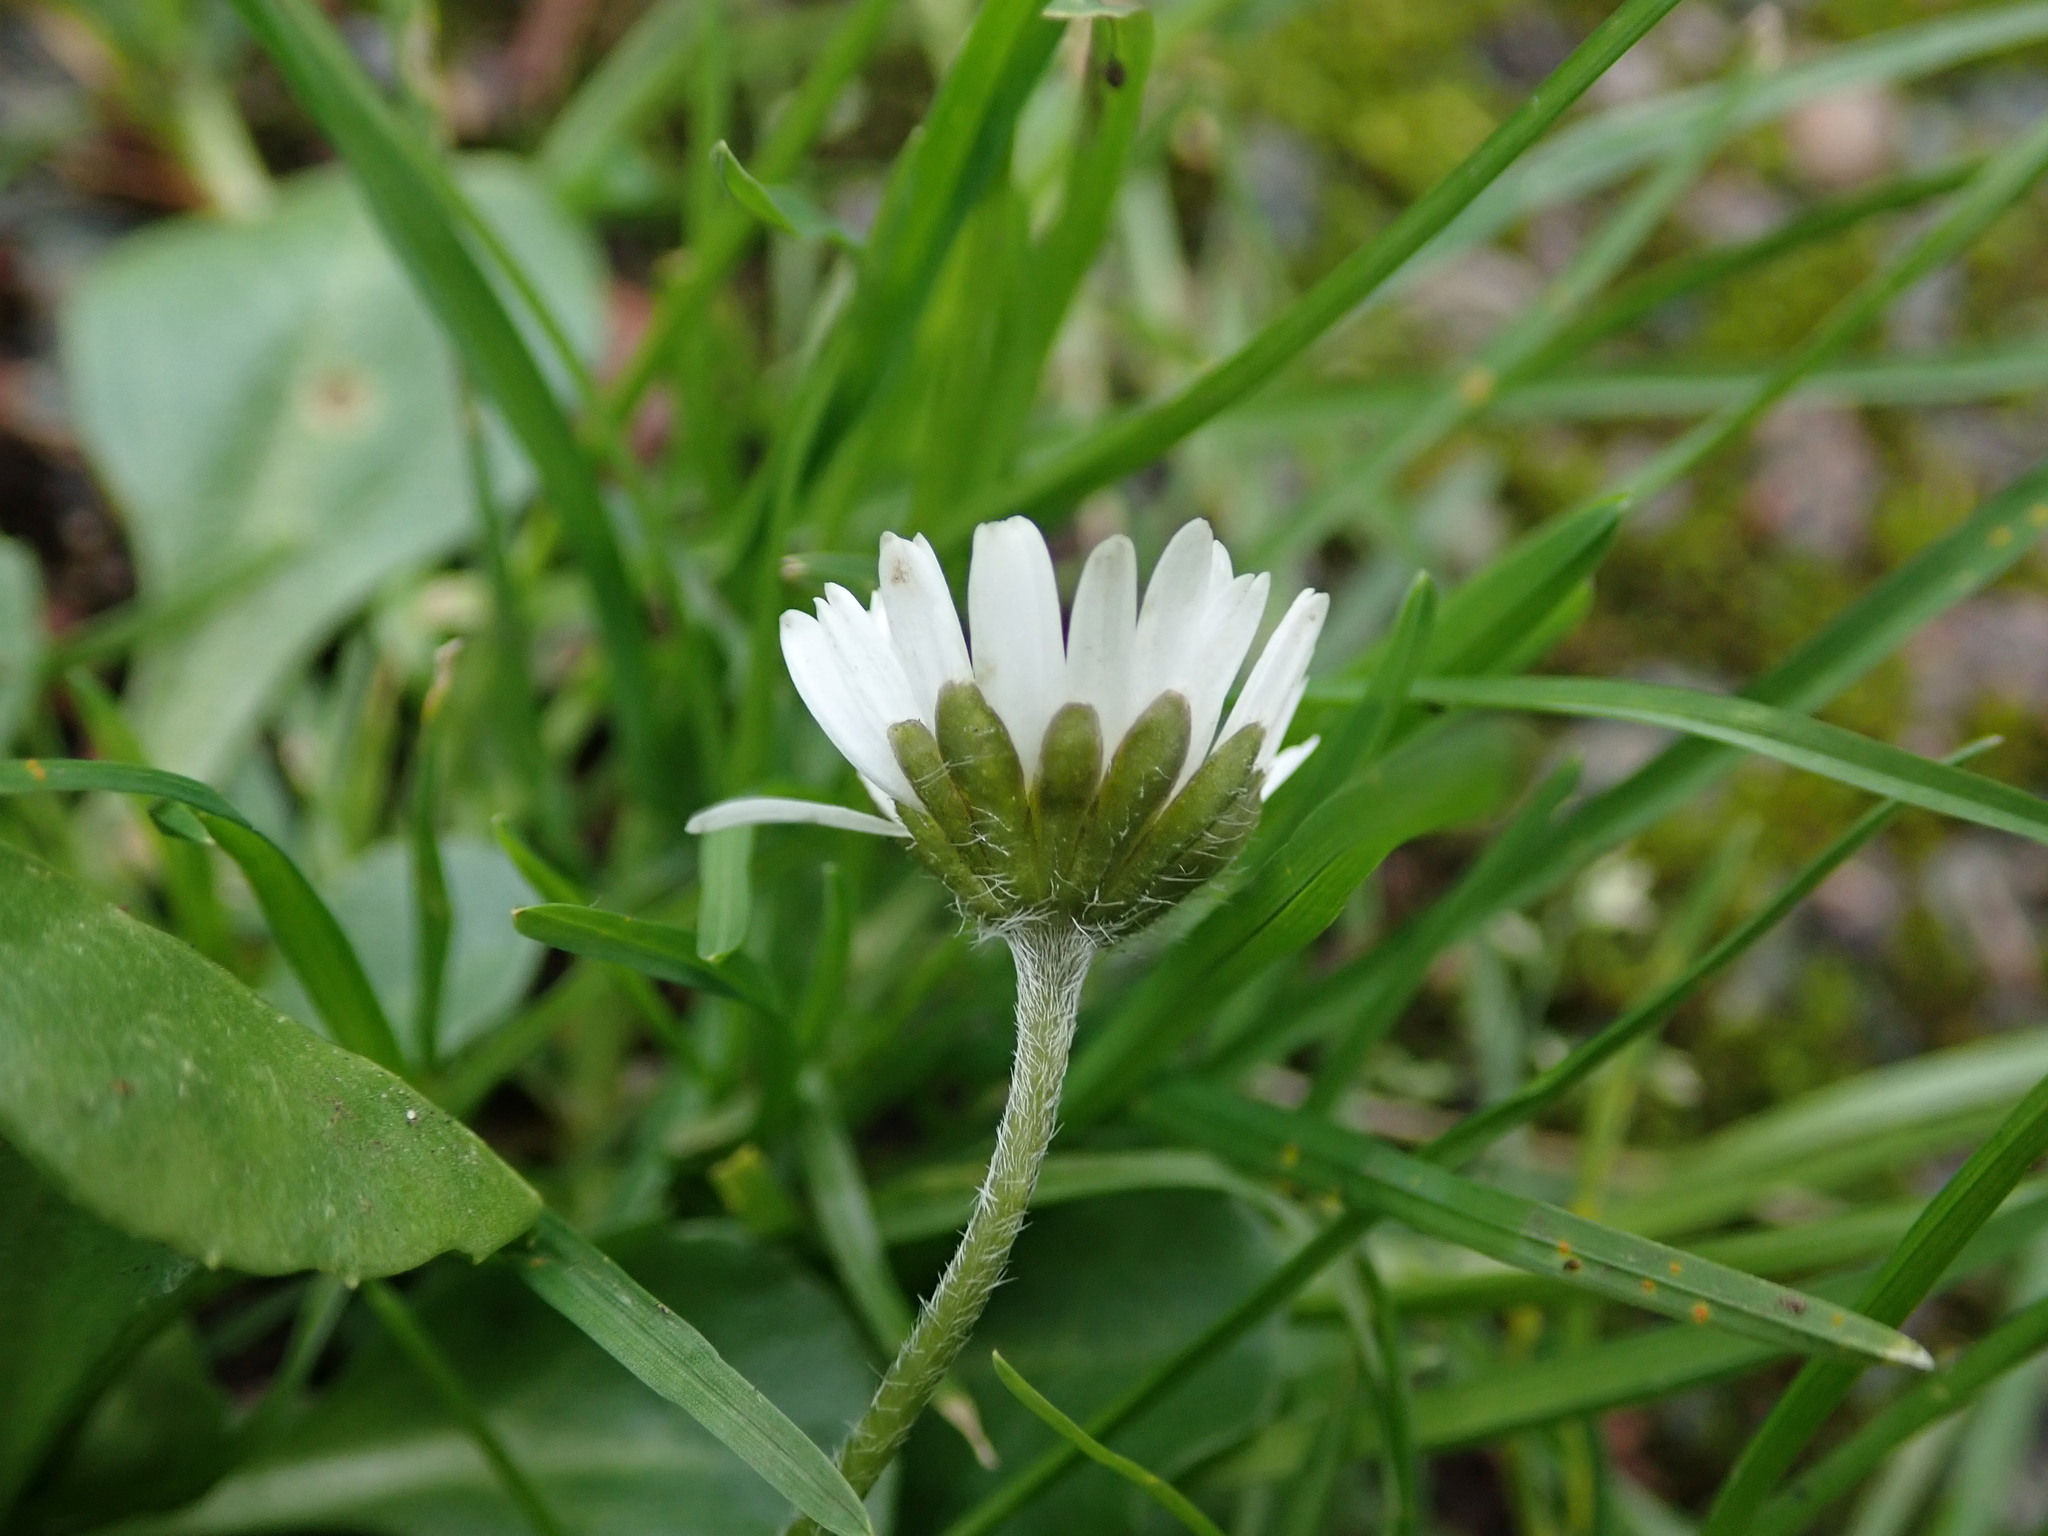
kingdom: Plantae
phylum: Tracheophyta
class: Magnoliopsida
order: Asterales
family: Asteraceae
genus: Bellis
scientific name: Bellis perennis
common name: Lawndaisy
